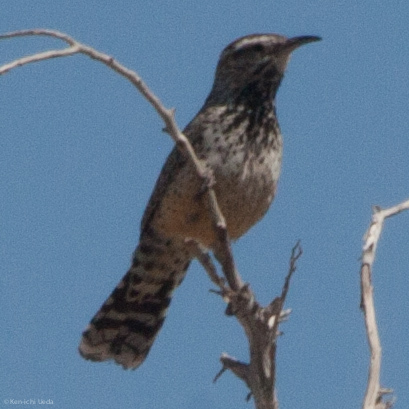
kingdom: Animalia
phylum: Chordata
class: Aves
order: Passeriformes
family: Troglodytidae
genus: Campylorhynchus
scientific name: Campylorhynchus brunneicapillus
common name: Cactus wren
